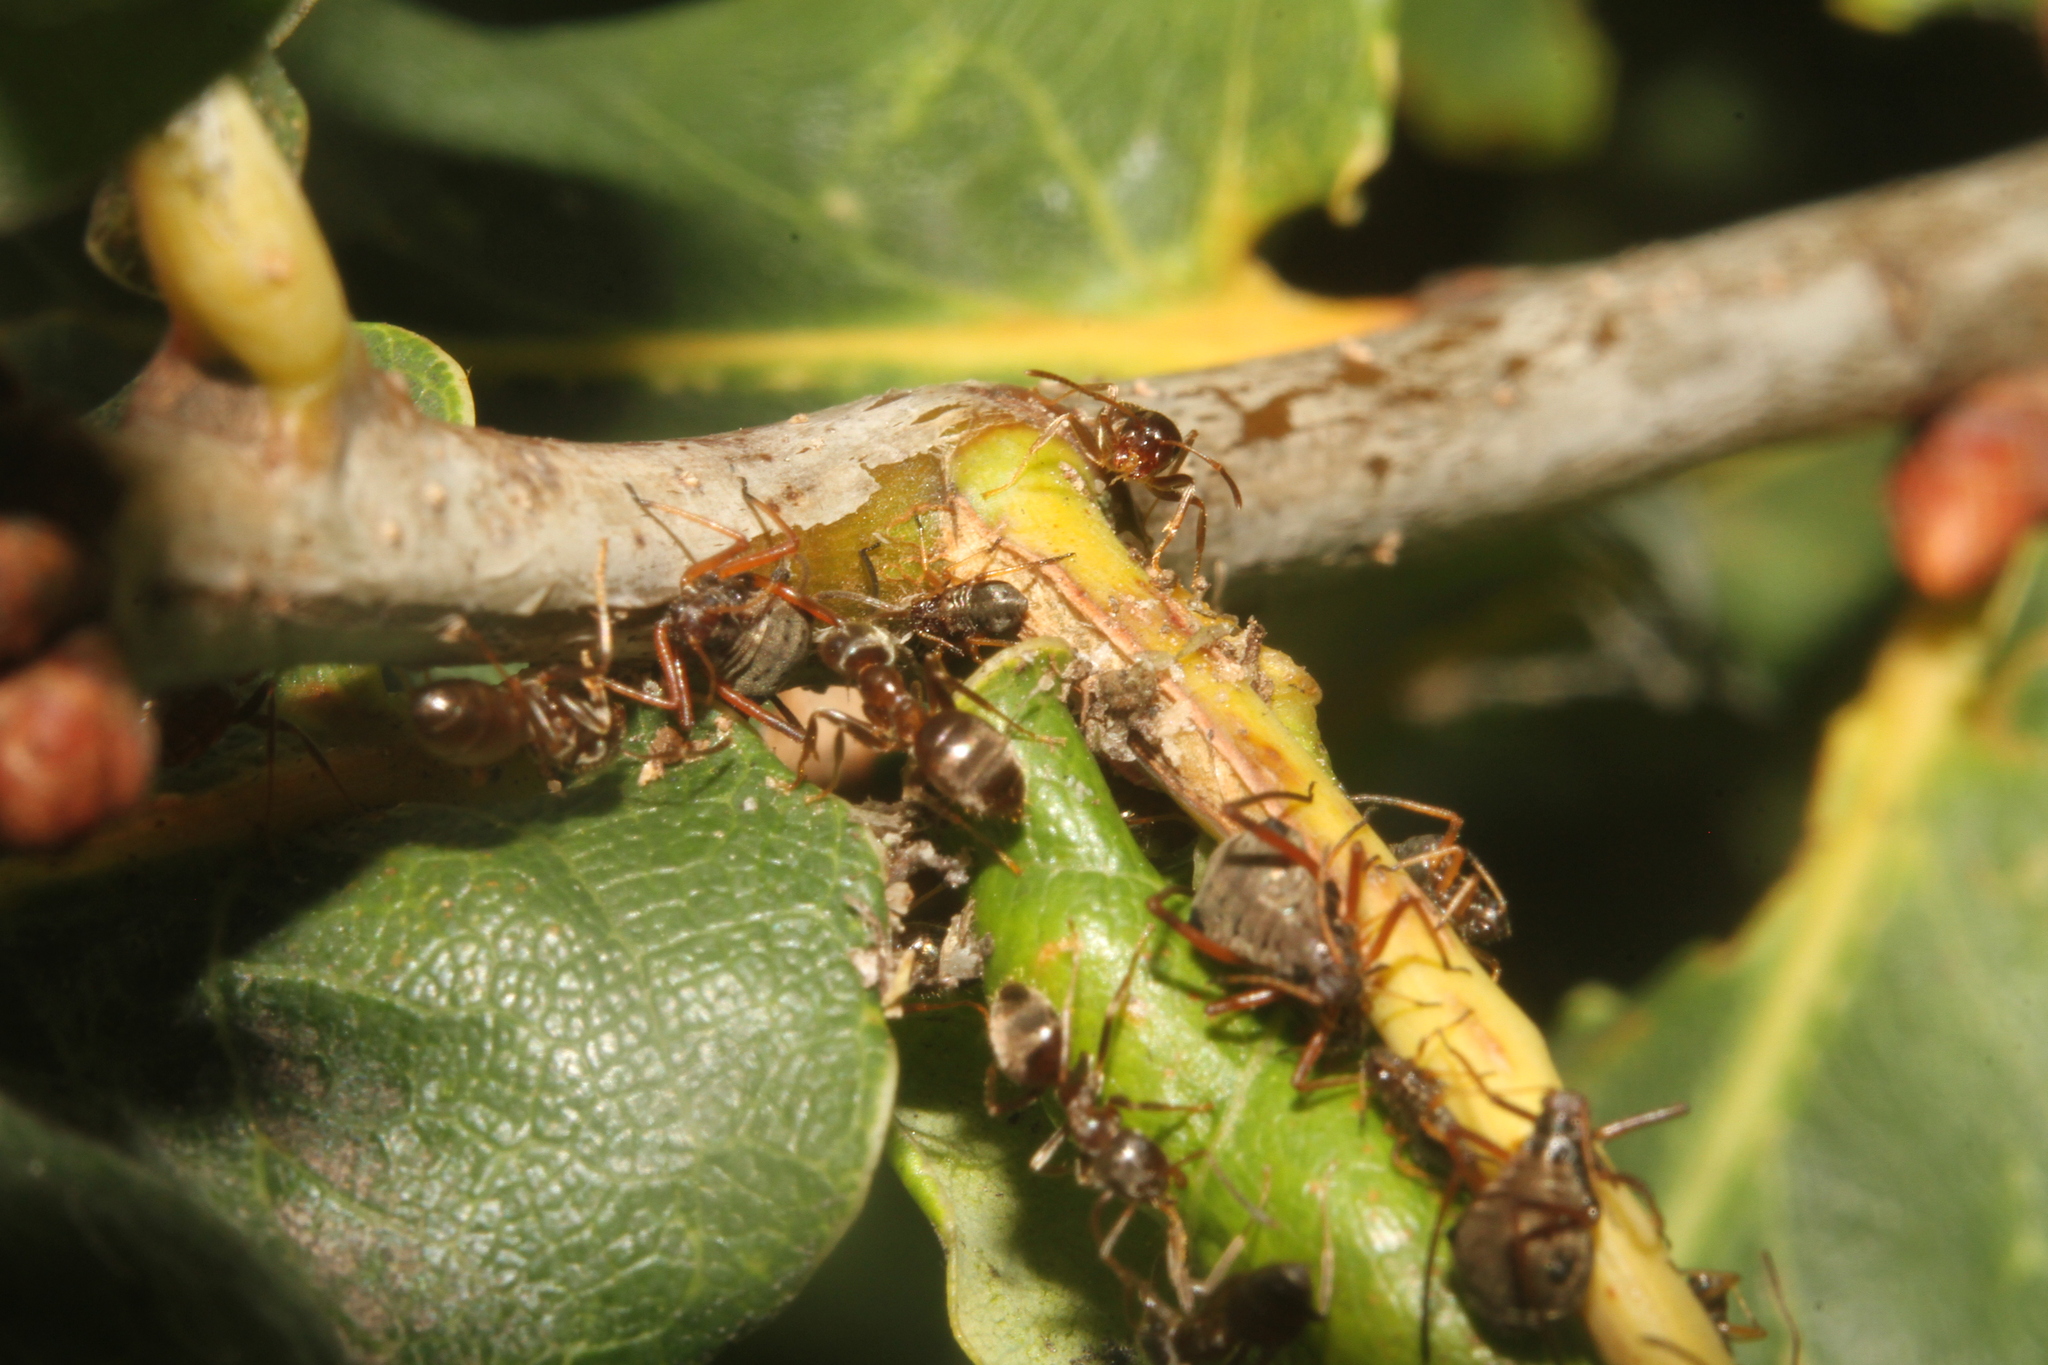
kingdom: Animalia
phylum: Arthropoda
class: Insecta
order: Hemiptera
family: Aphididae
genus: Lachnus
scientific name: Lachnus roboris
